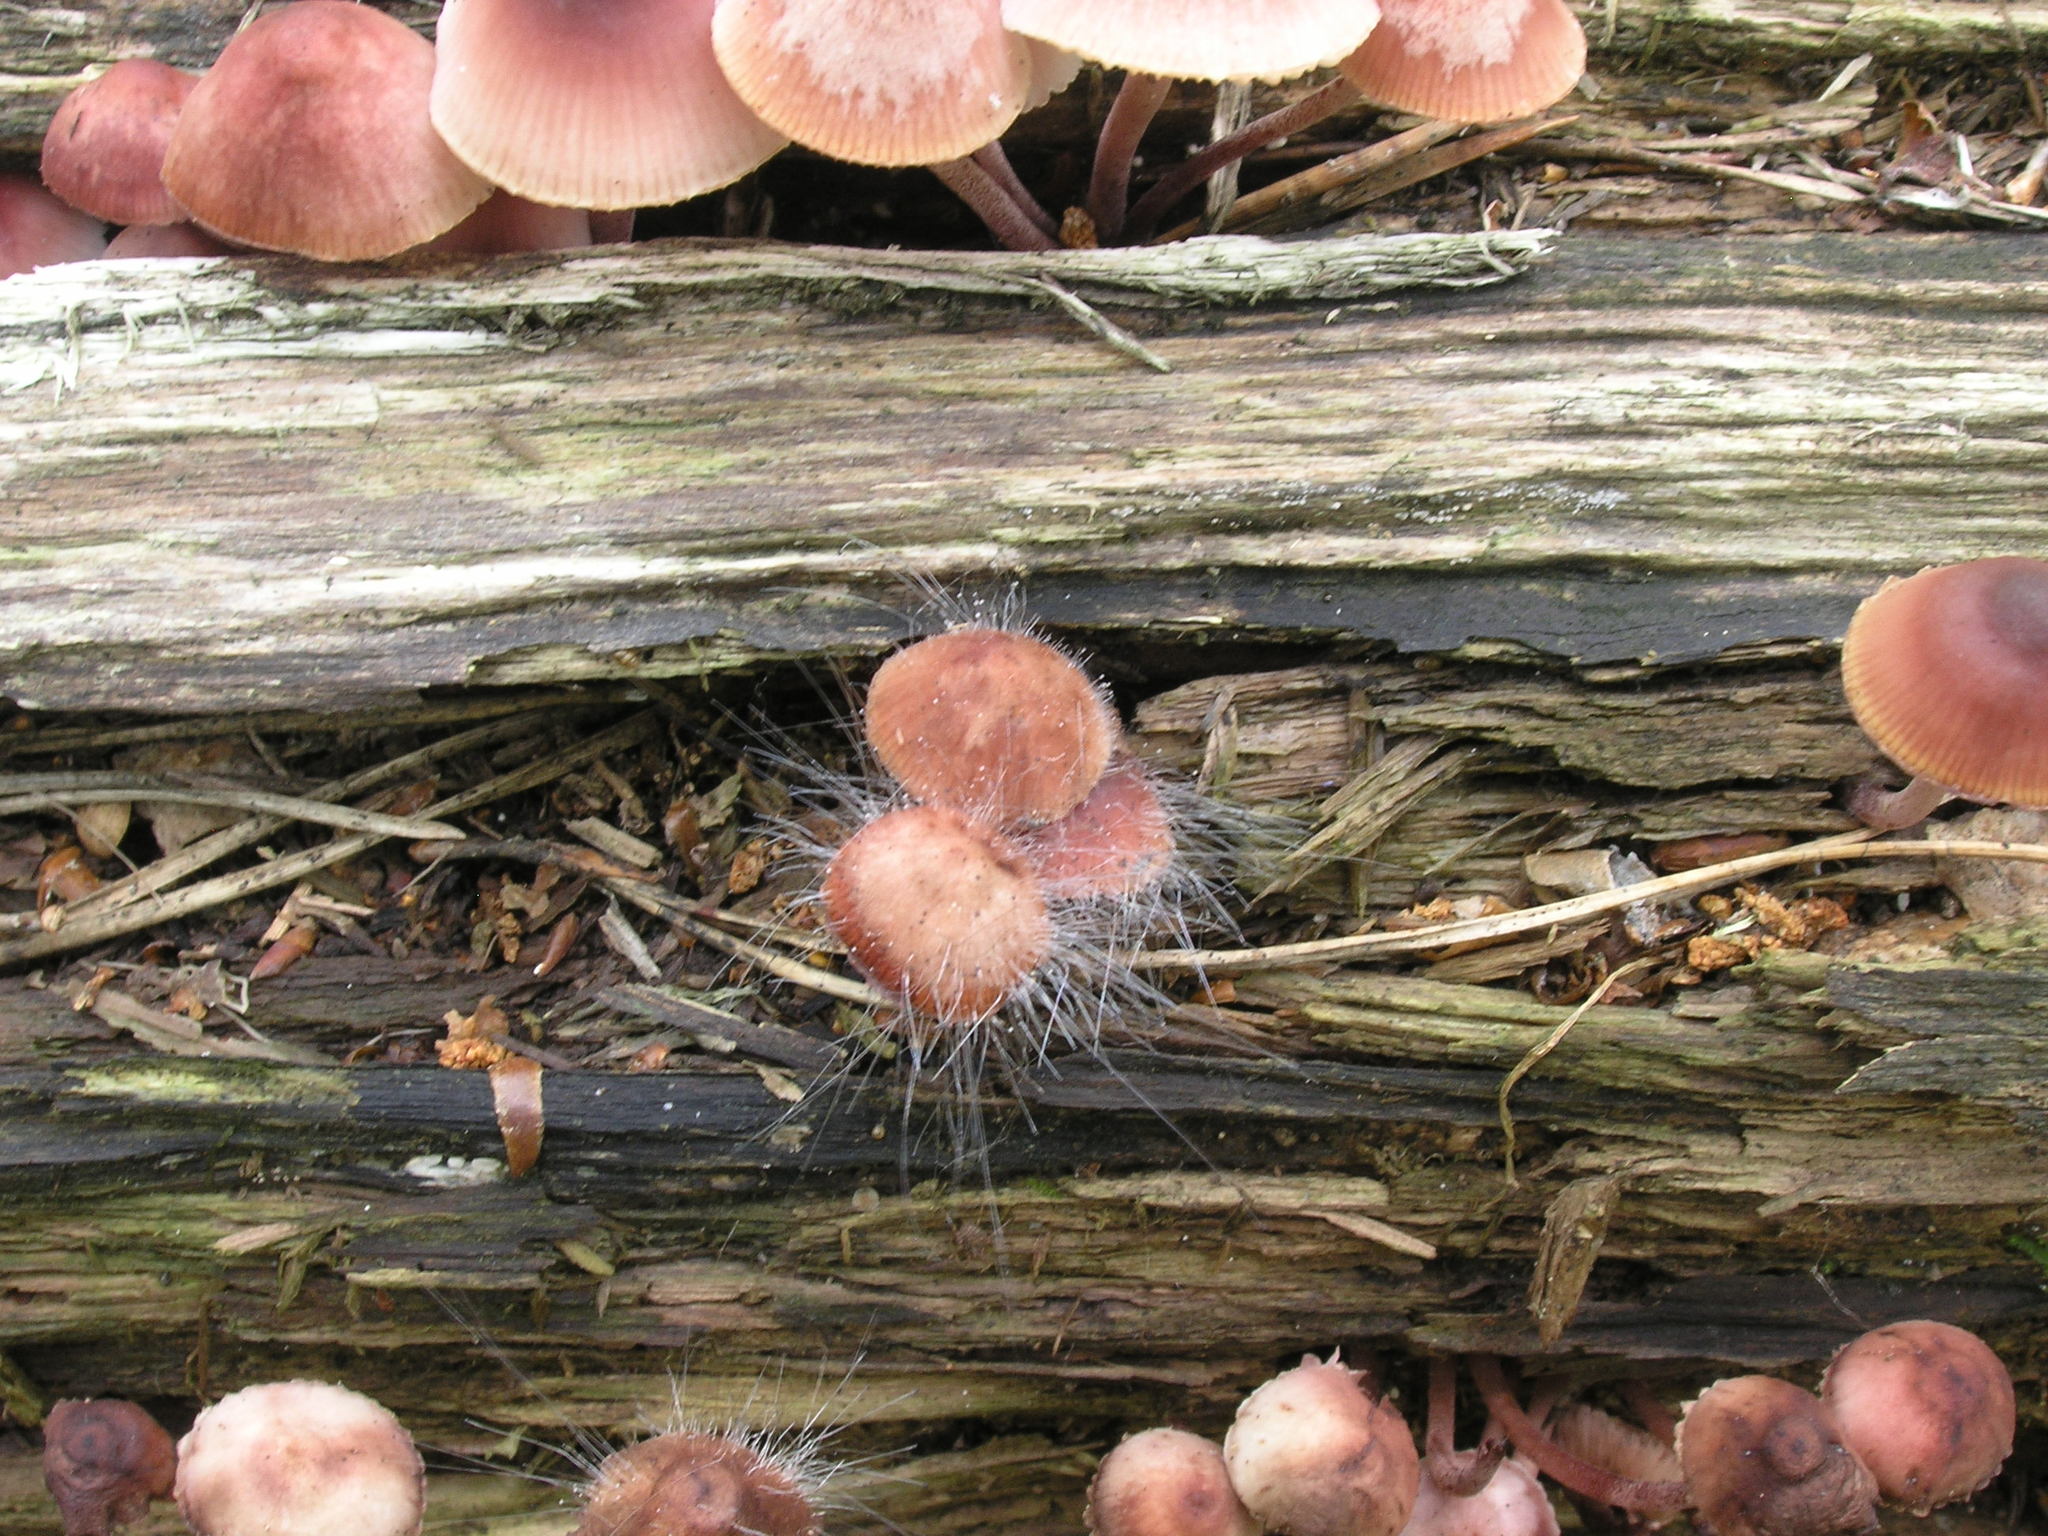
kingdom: Fungi
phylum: Mucoromycota
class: Mucoromycetes
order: Mucorales
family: Phycomycetaceae
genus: Spinellus
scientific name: Spinellus fusiger
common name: Bonnet mould
